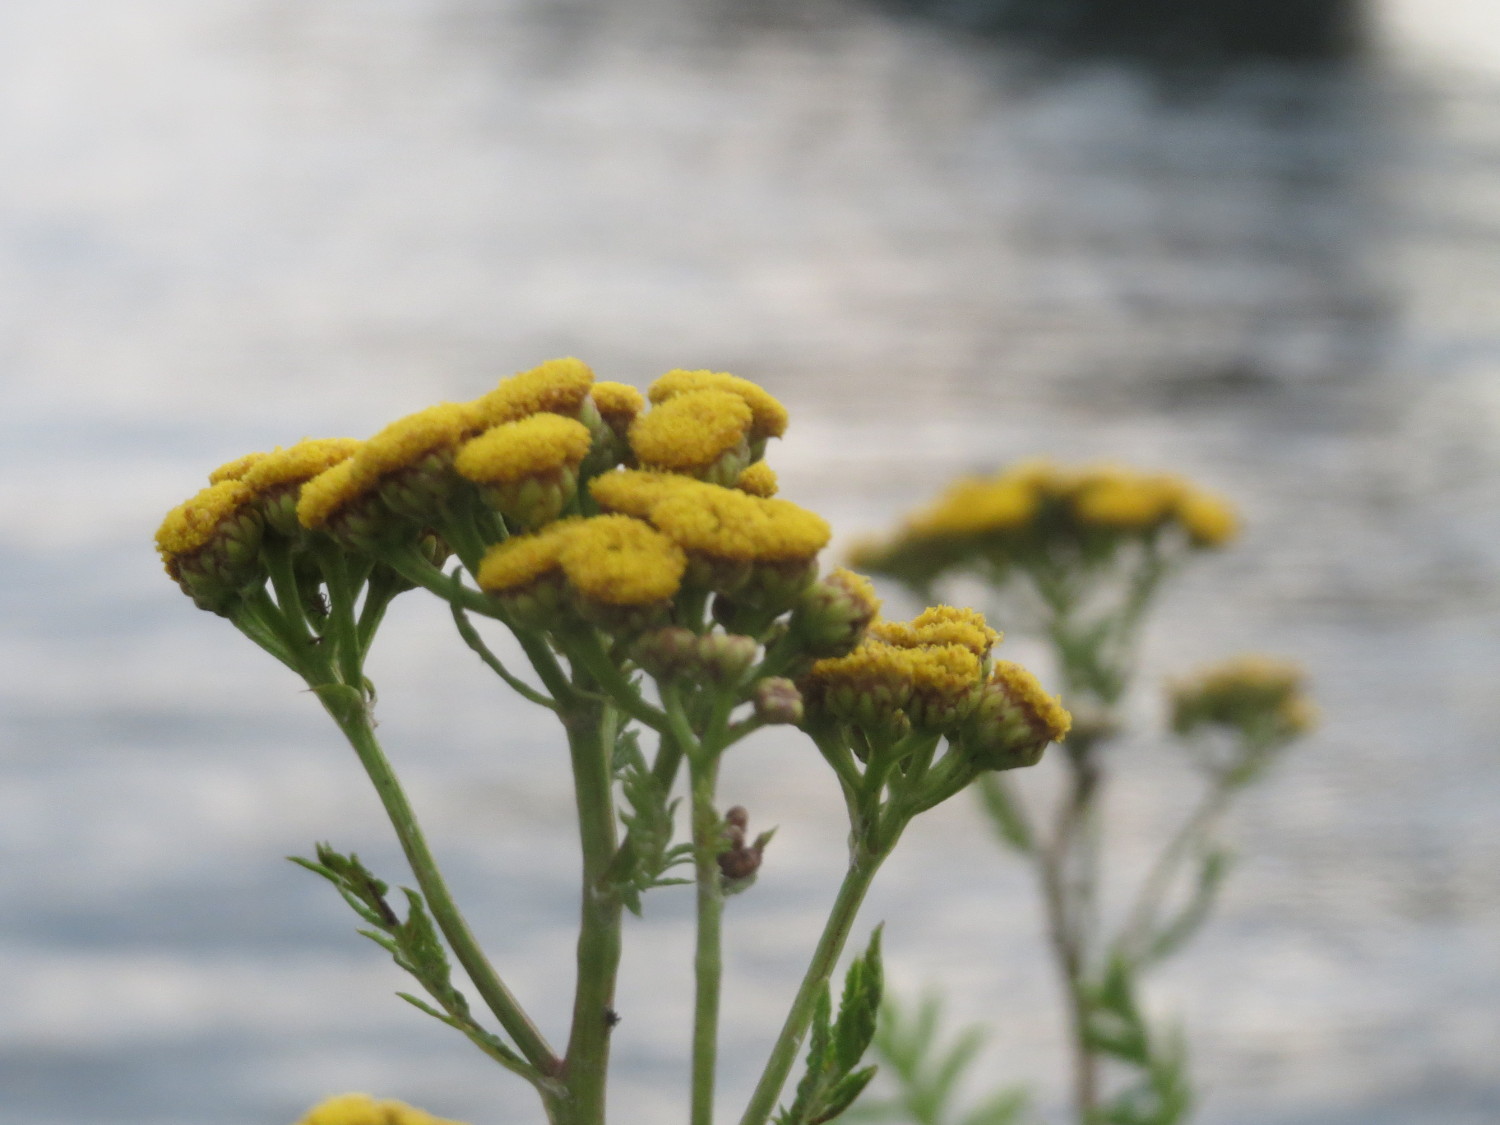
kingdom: Plantae
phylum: Tracheophyta
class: Magnoliopsida
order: Asterales
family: Asteraceae
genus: Tanacetum
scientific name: Tanacetum vulgare
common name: Common tansy
